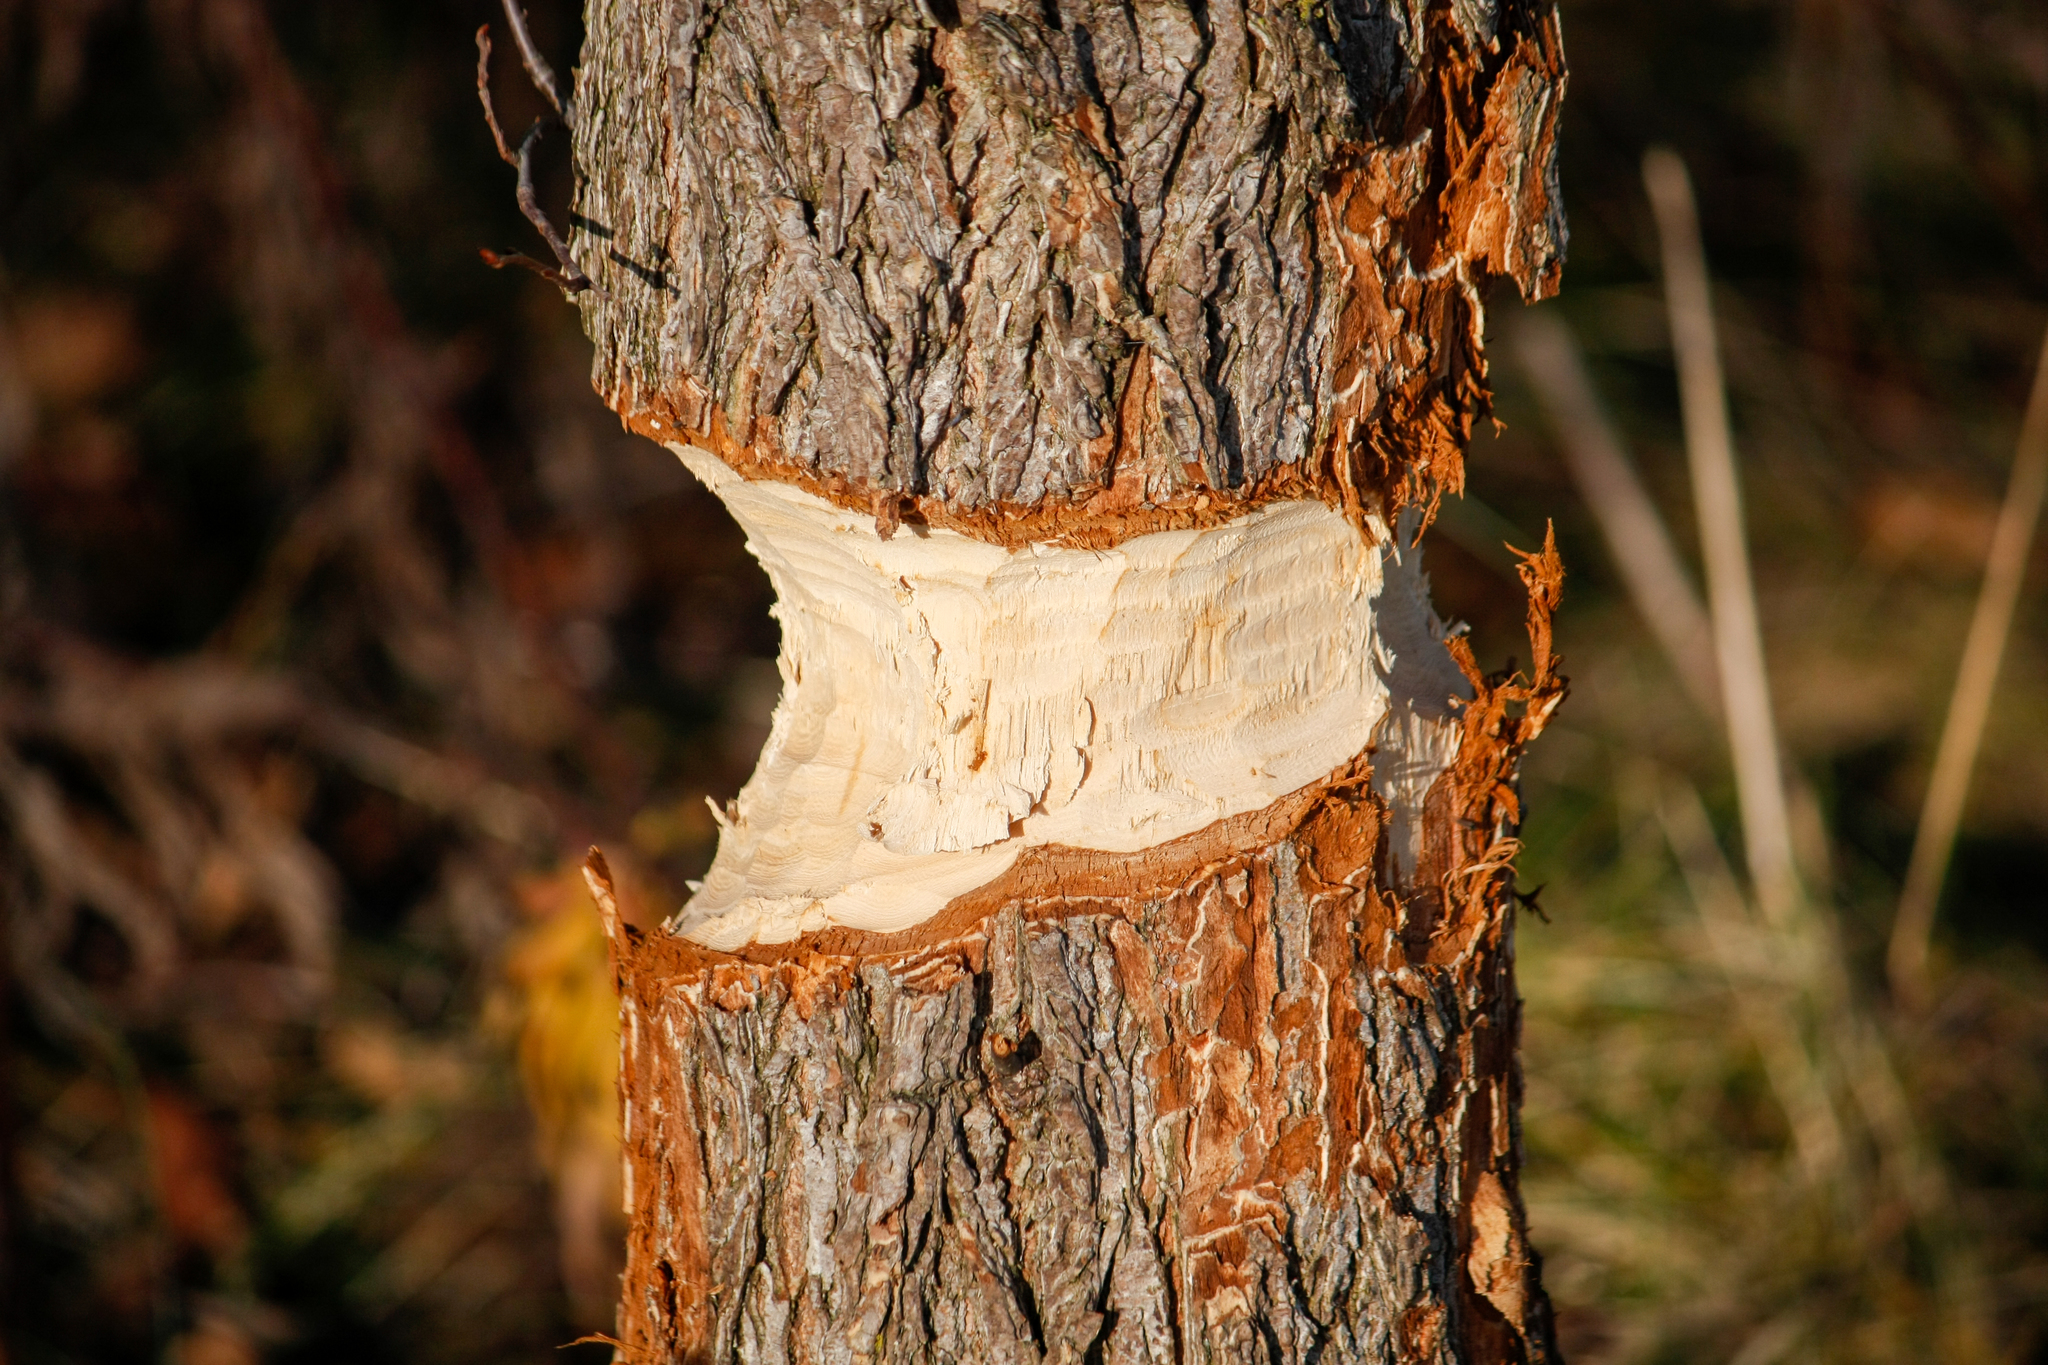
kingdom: Animalia
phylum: Chordata
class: Mammalia
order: Rodentia
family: Castoridae
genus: Castor
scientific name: Castor canadensis
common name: American beaver
